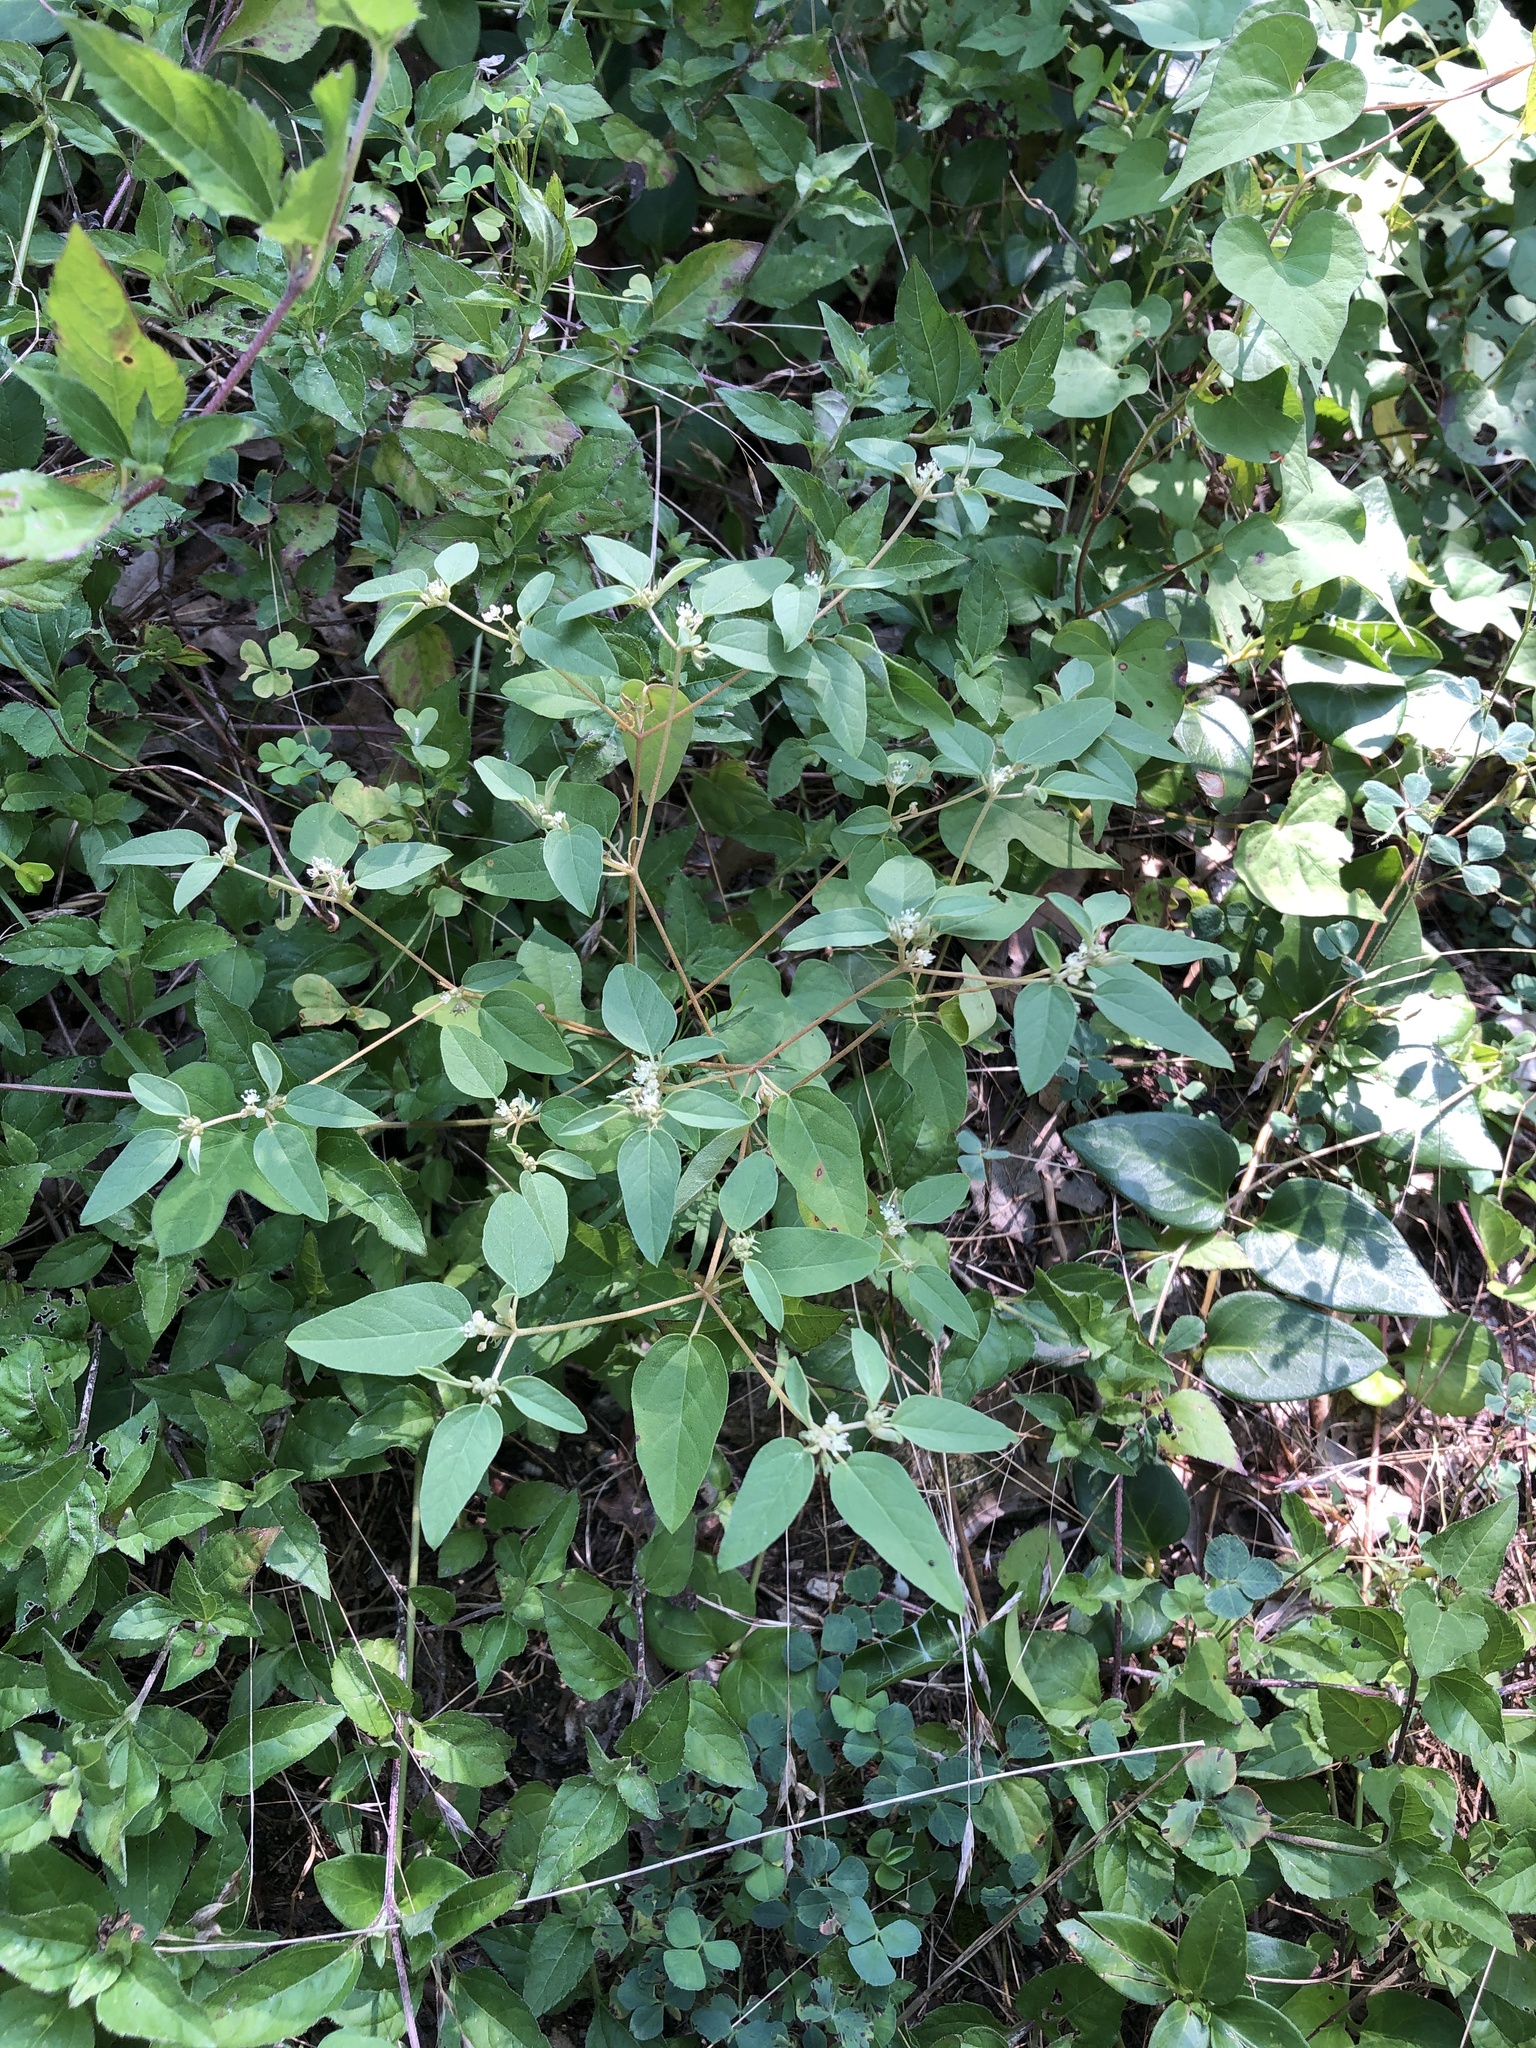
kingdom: Plantae
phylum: Tracheophyta
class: Magnoliopsida
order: Malpighiales
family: Euphorbiaceae
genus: Croton
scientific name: Croton monanthogynus
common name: One-seed croton
